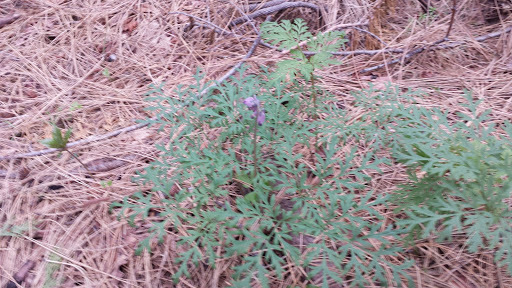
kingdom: Plantae
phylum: Tracheophyta
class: Magnoliopsida
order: Ranunculales
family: Papaveraceae
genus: Dicentra
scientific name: Dicentra formosa
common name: Bleeding-heart
